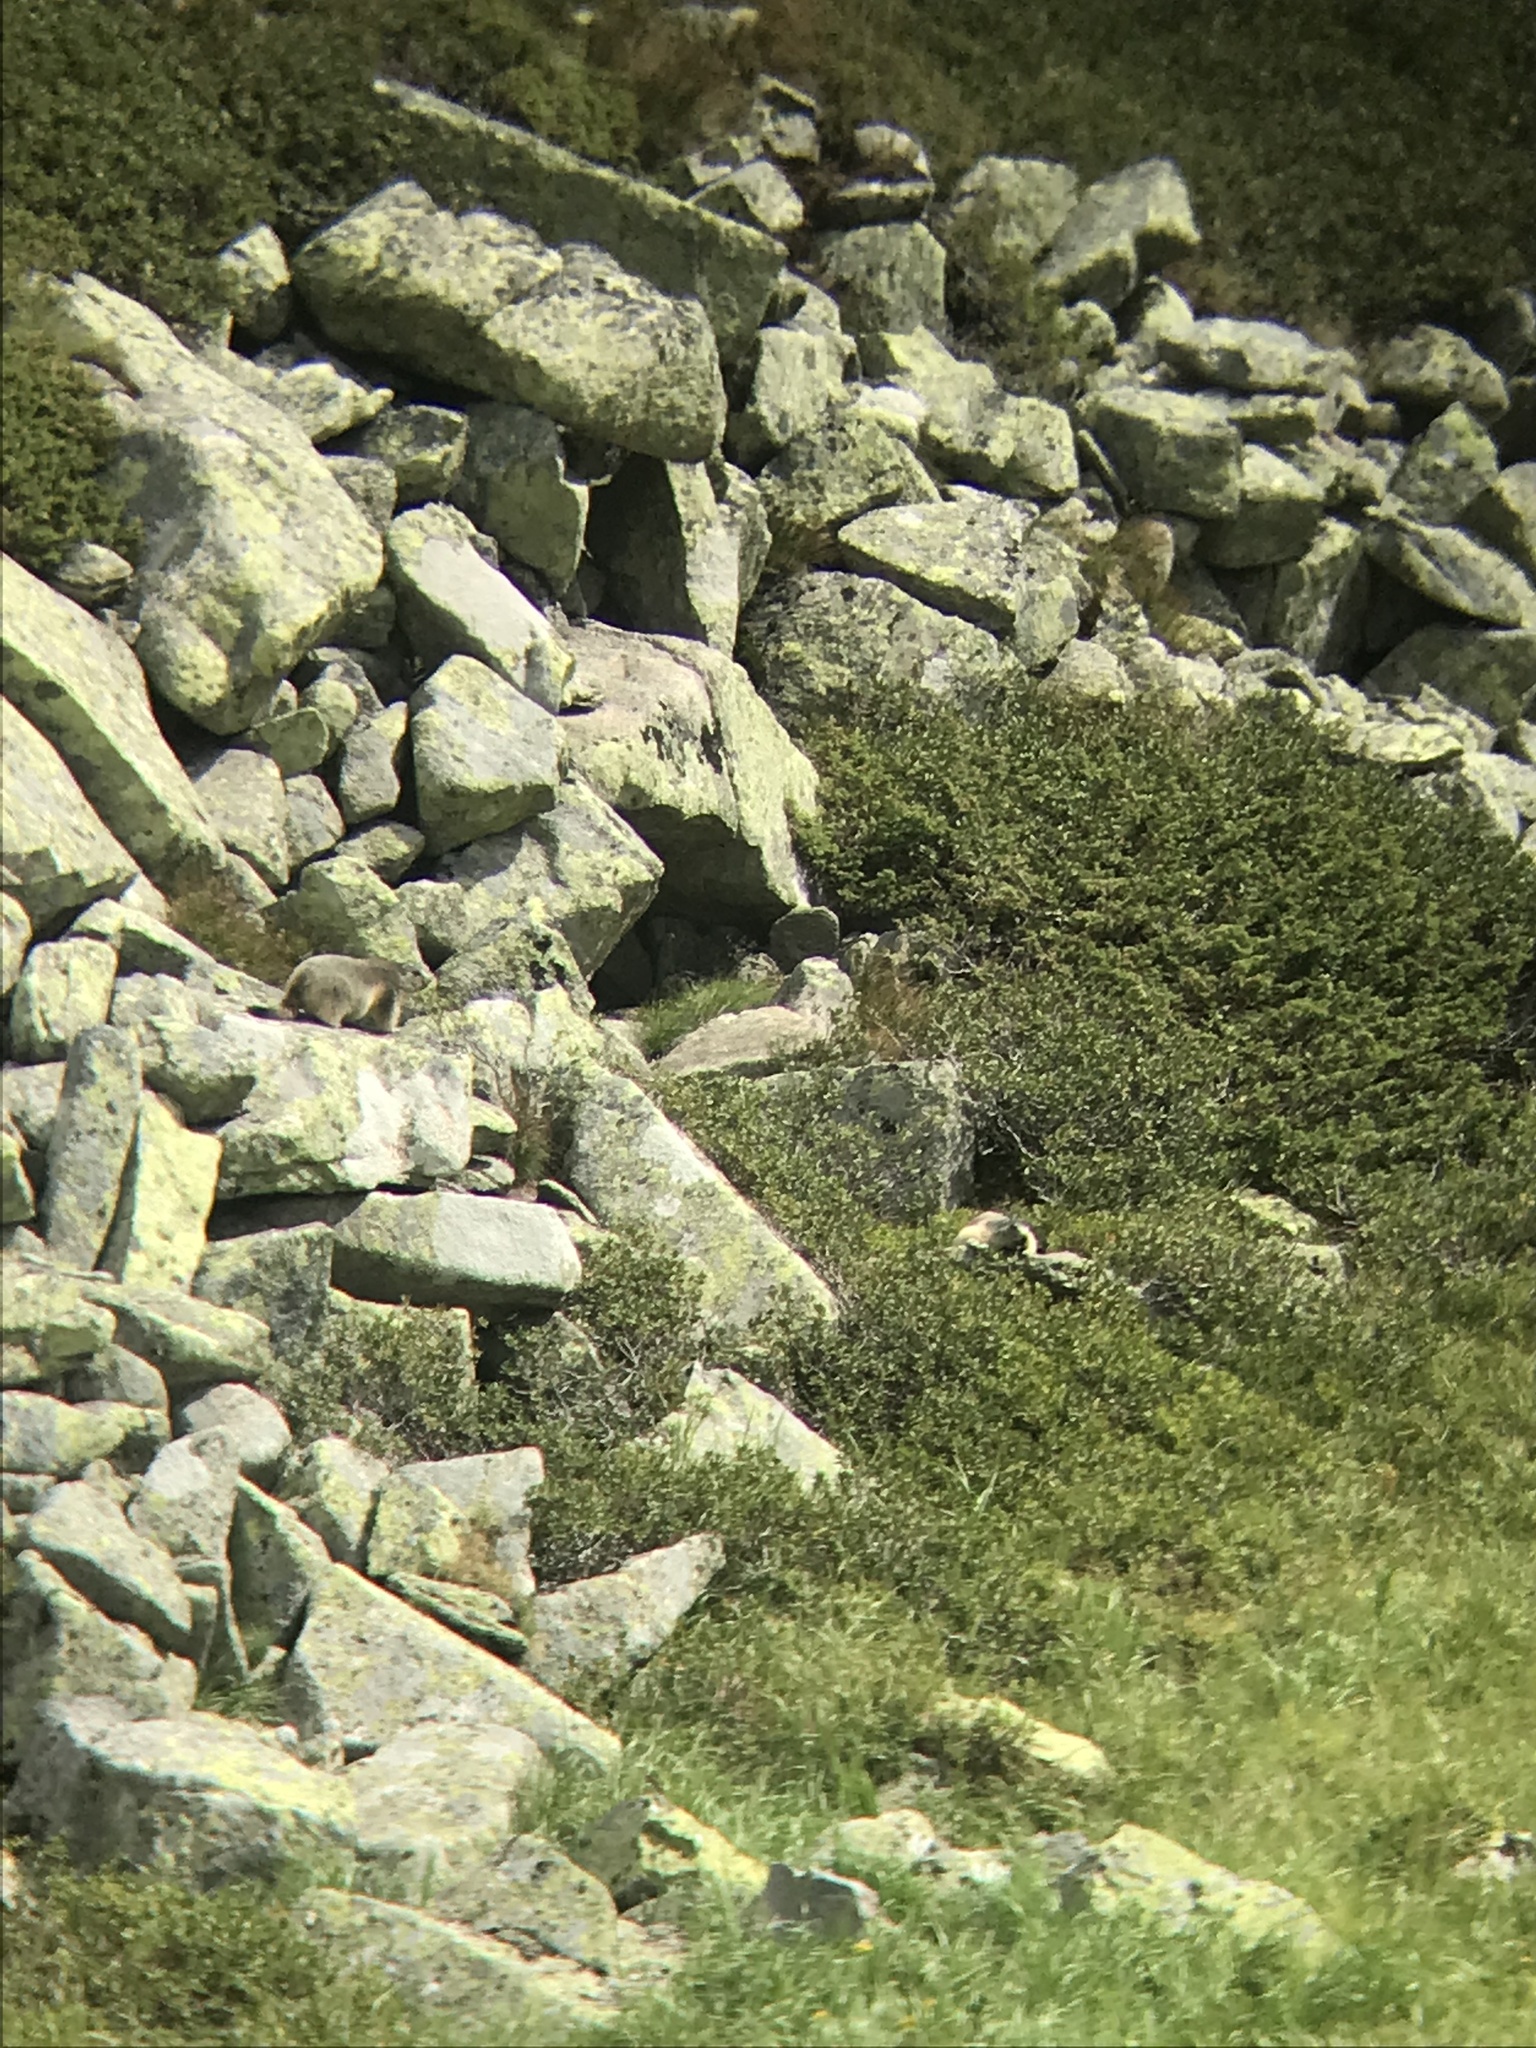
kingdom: Animalia
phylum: Chordata
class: Mammalia
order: Rodentia
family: Sciuridae
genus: Marmota
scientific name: Marmota marmota
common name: Alpine marmot
